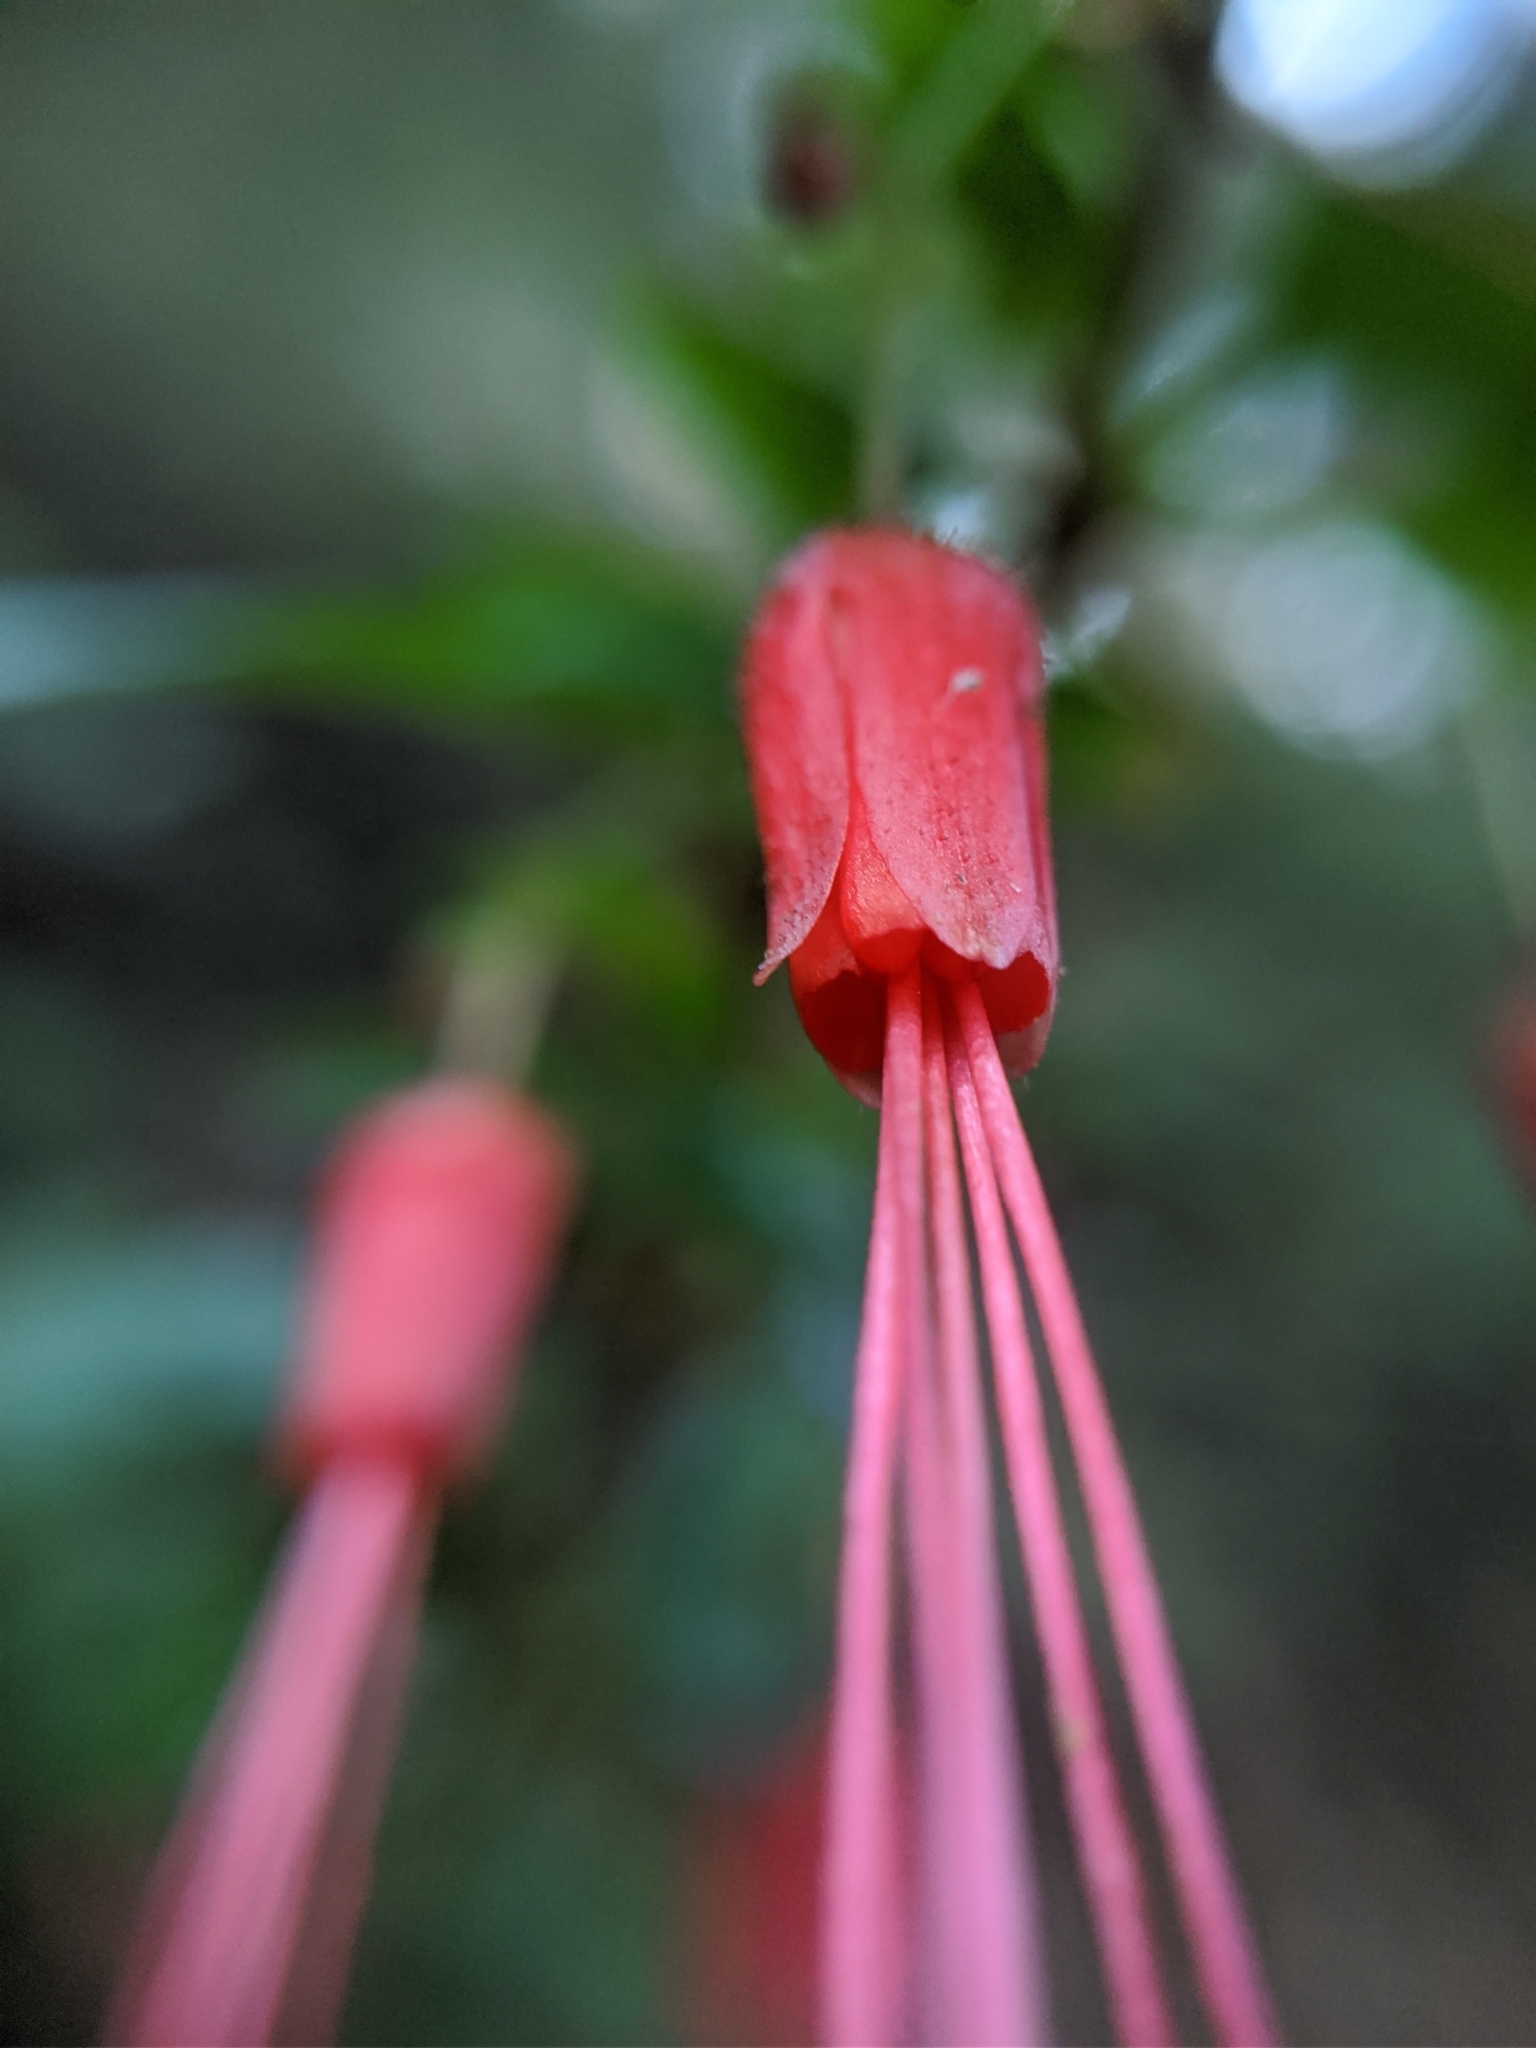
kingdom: Plantae
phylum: Tracheophyta
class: Magnoliopsida
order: Saxifragales
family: Grossulariaceae
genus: Ribes
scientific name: Ribes speciosum
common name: Fuchsia-flower gooseberry
